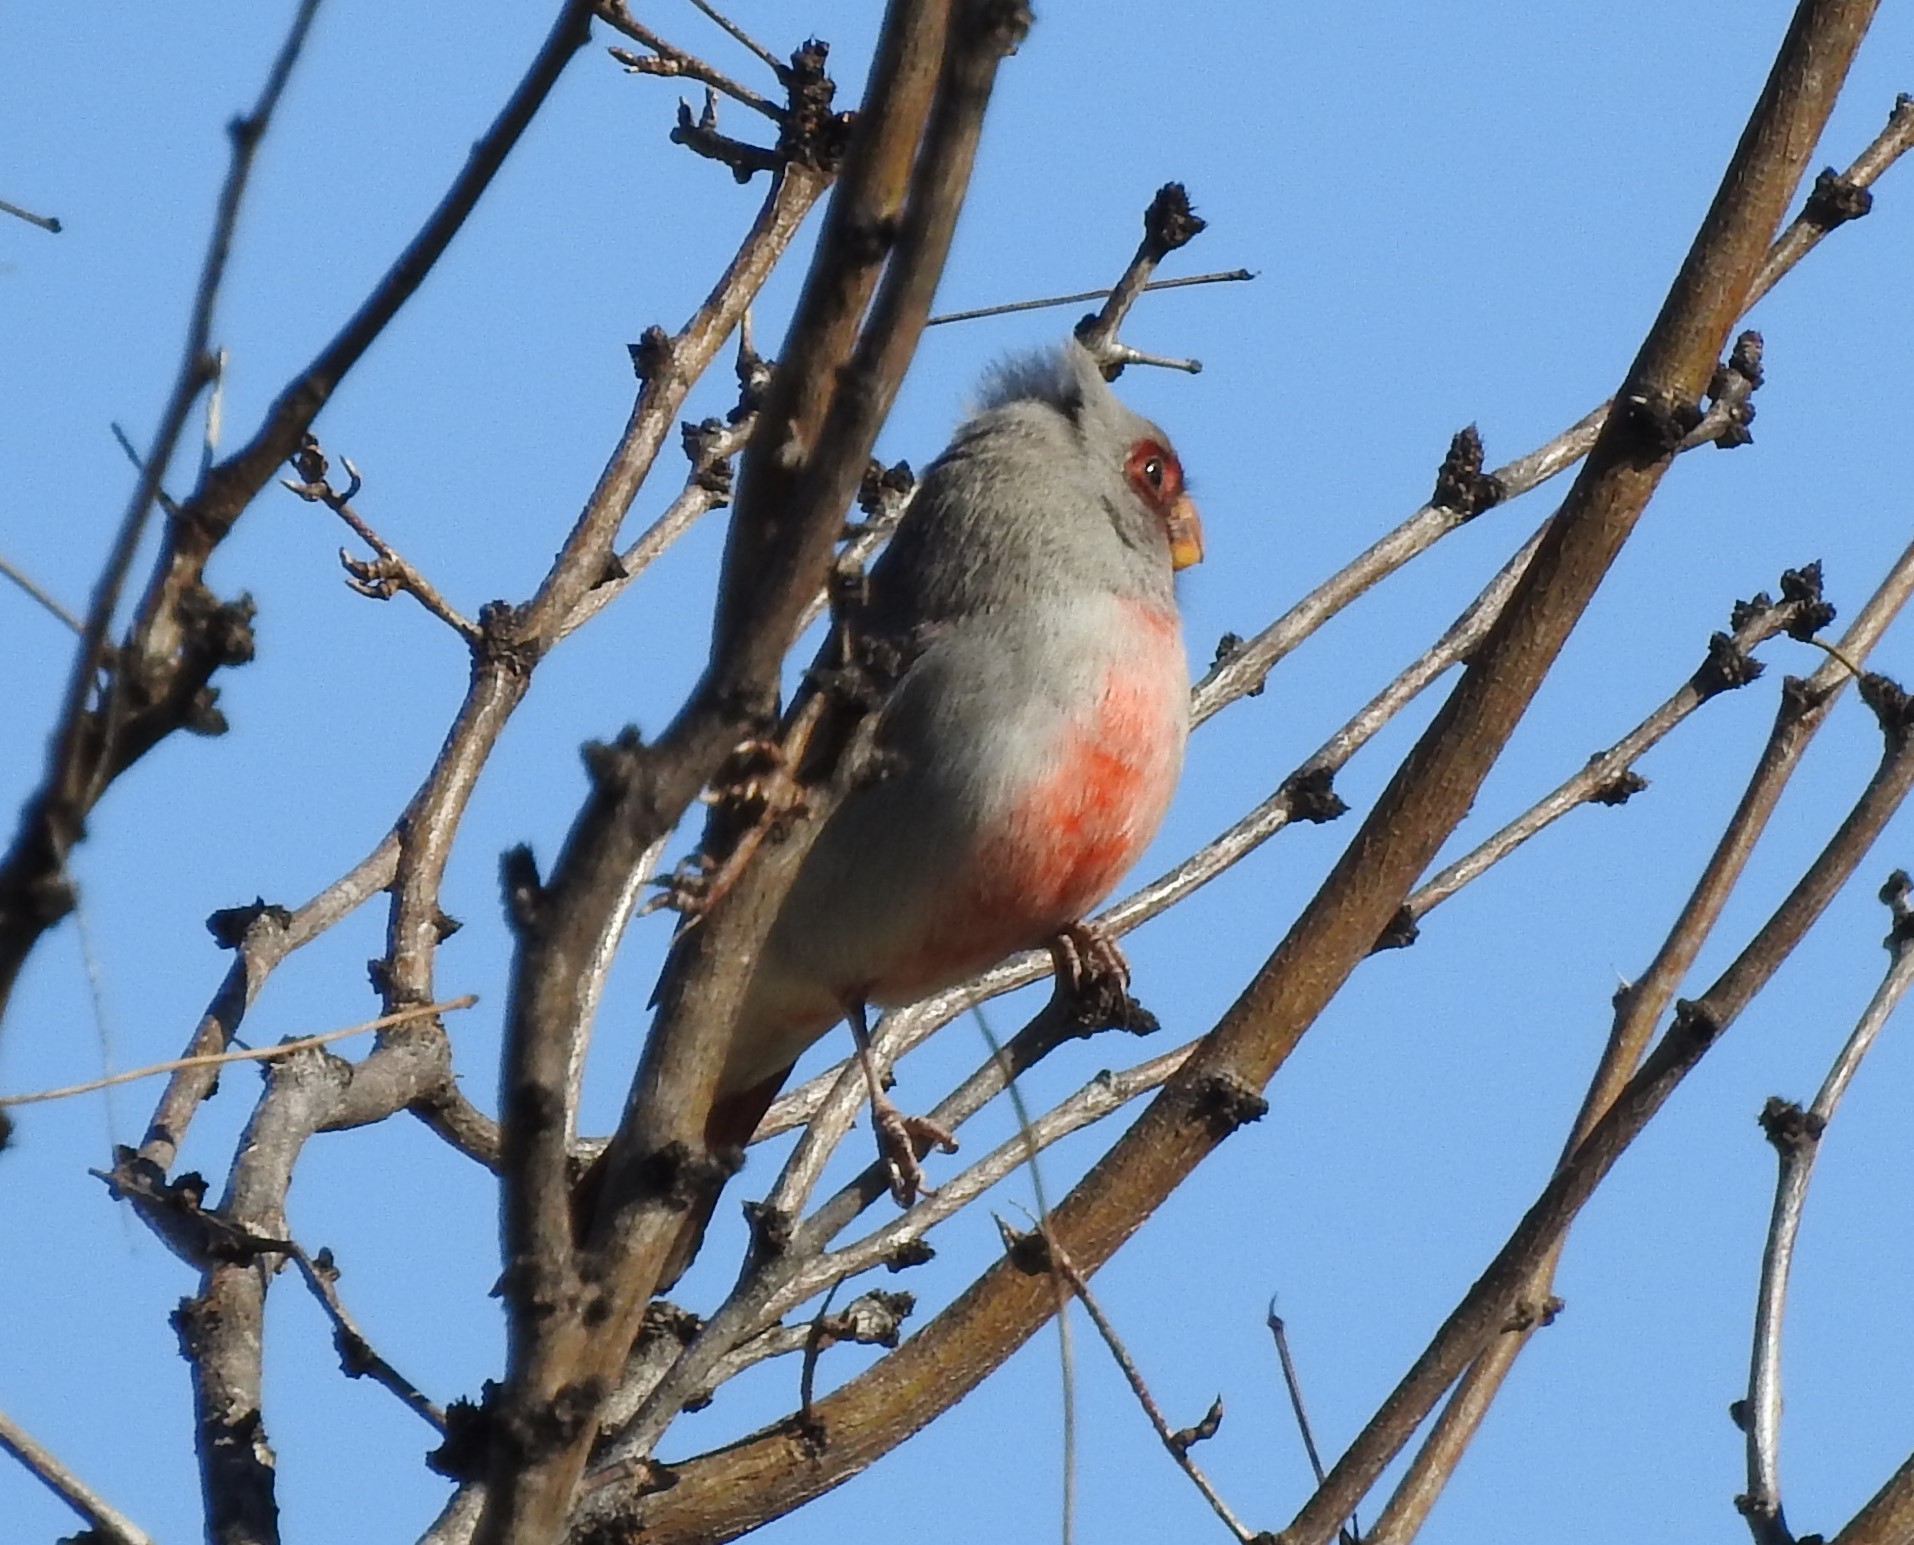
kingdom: Animalia
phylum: Chordata
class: Aves
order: Passeriformes
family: Cardinalidae
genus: Cardinalis
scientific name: Cardinalis sinuatus
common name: Pyrrhuloxia
